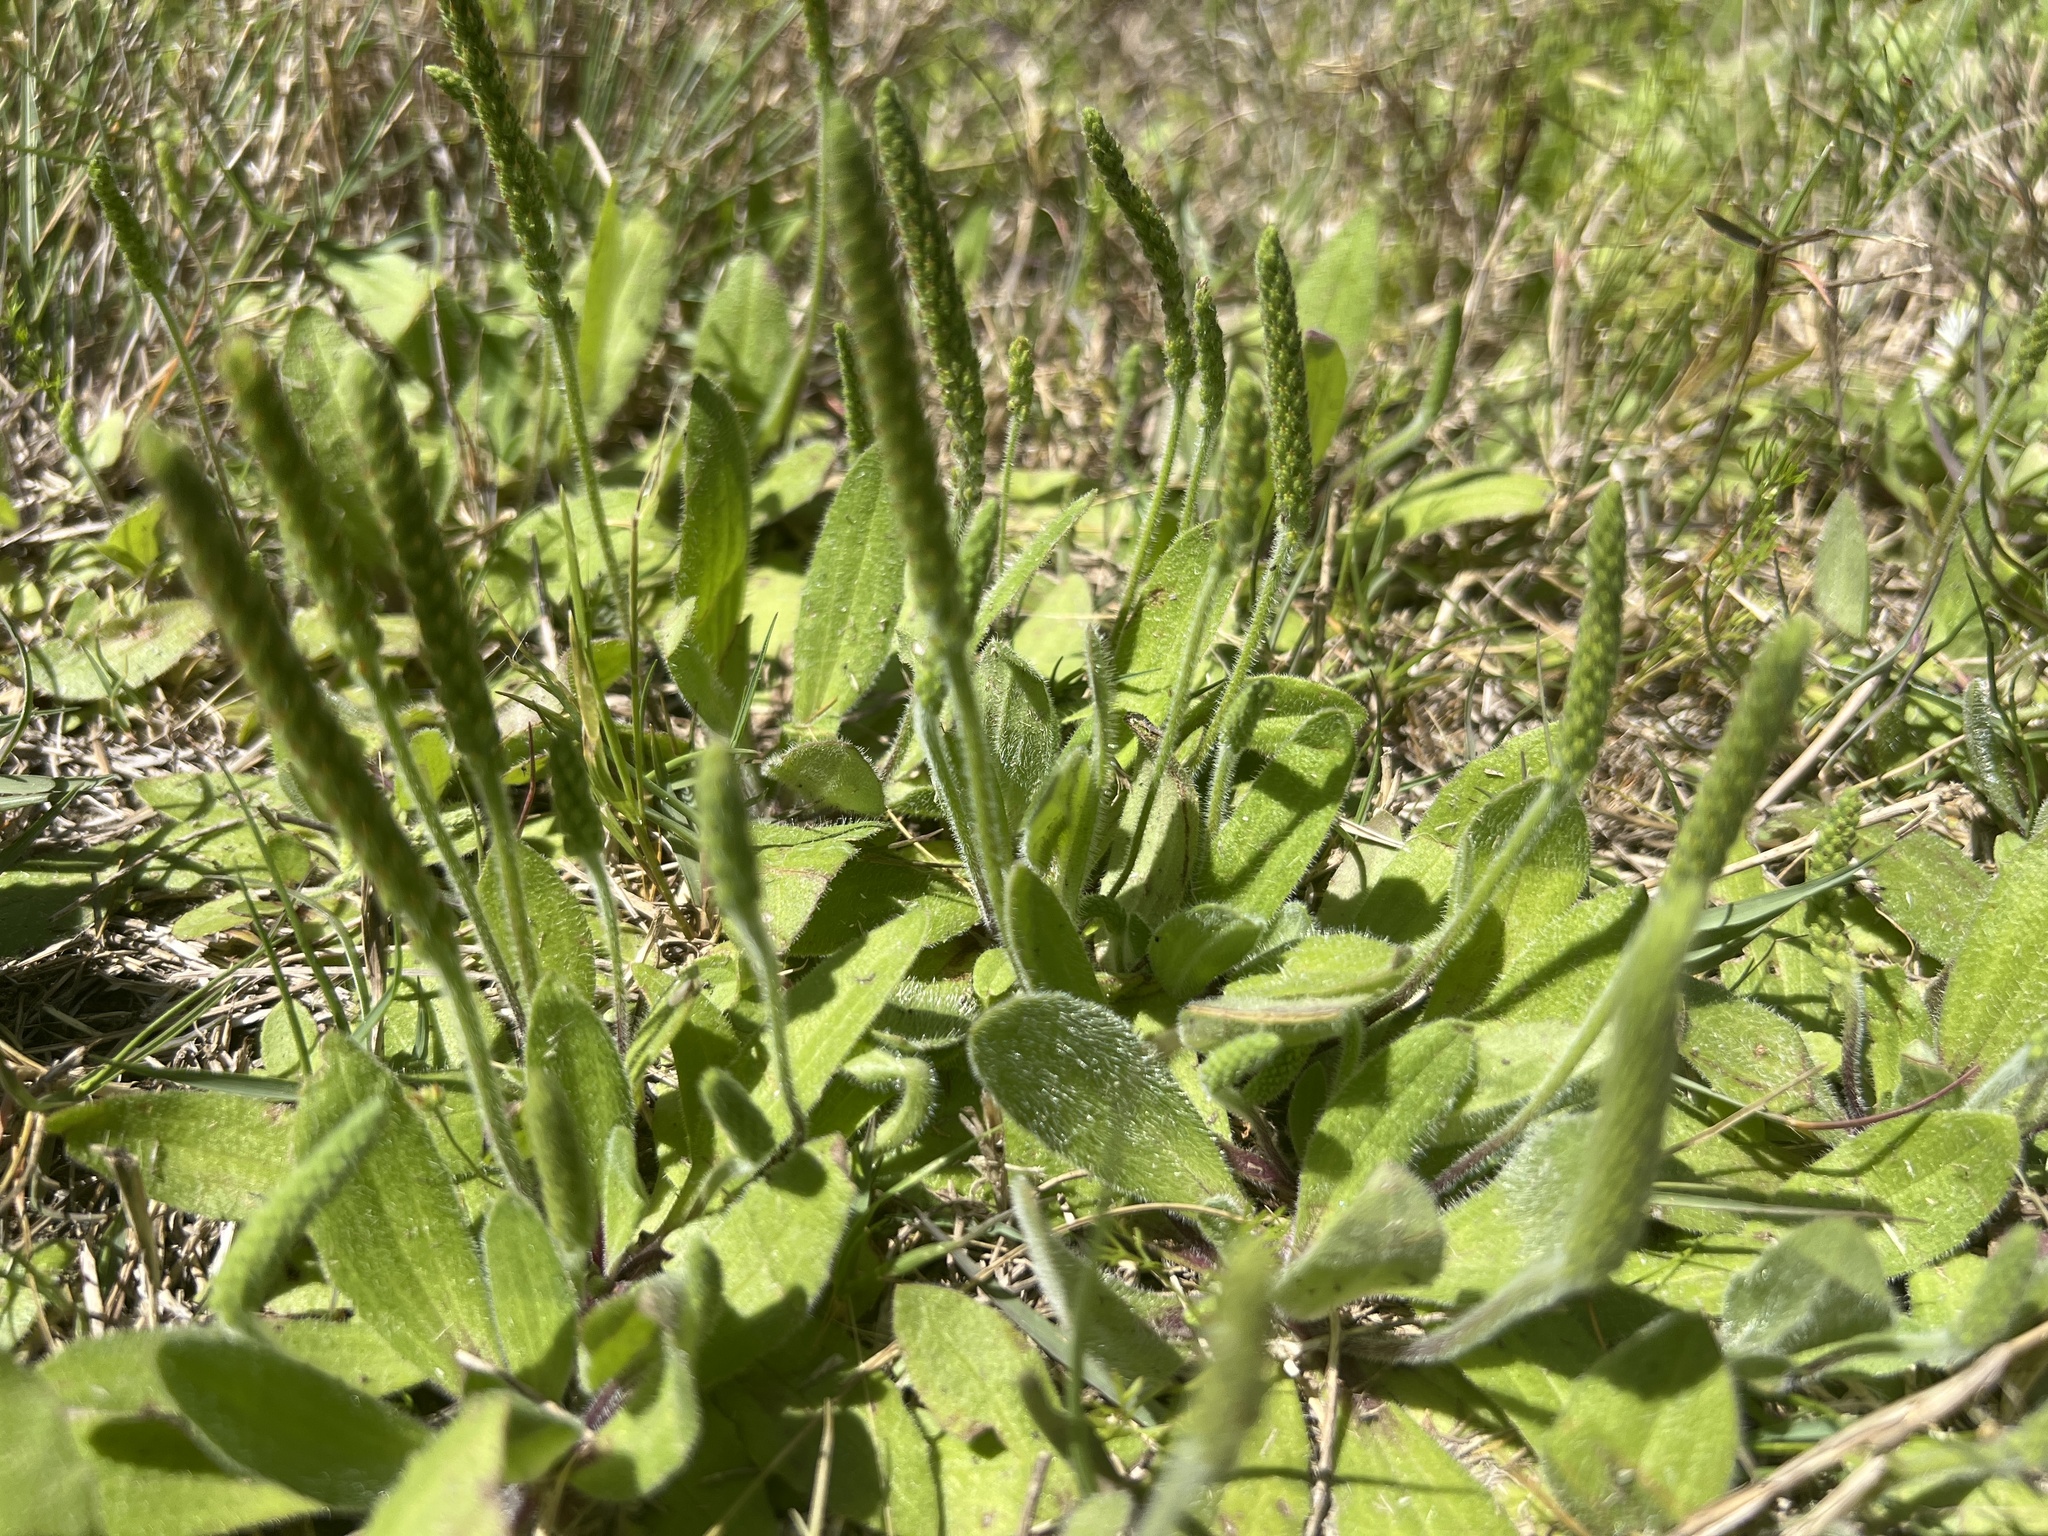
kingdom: Plantae
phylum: Tracheophyta
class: Magnoliopsida
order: Lamiales
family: Plantaginaceae
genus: Plantago
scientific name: Plantago virginica
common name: Hoary plantain
